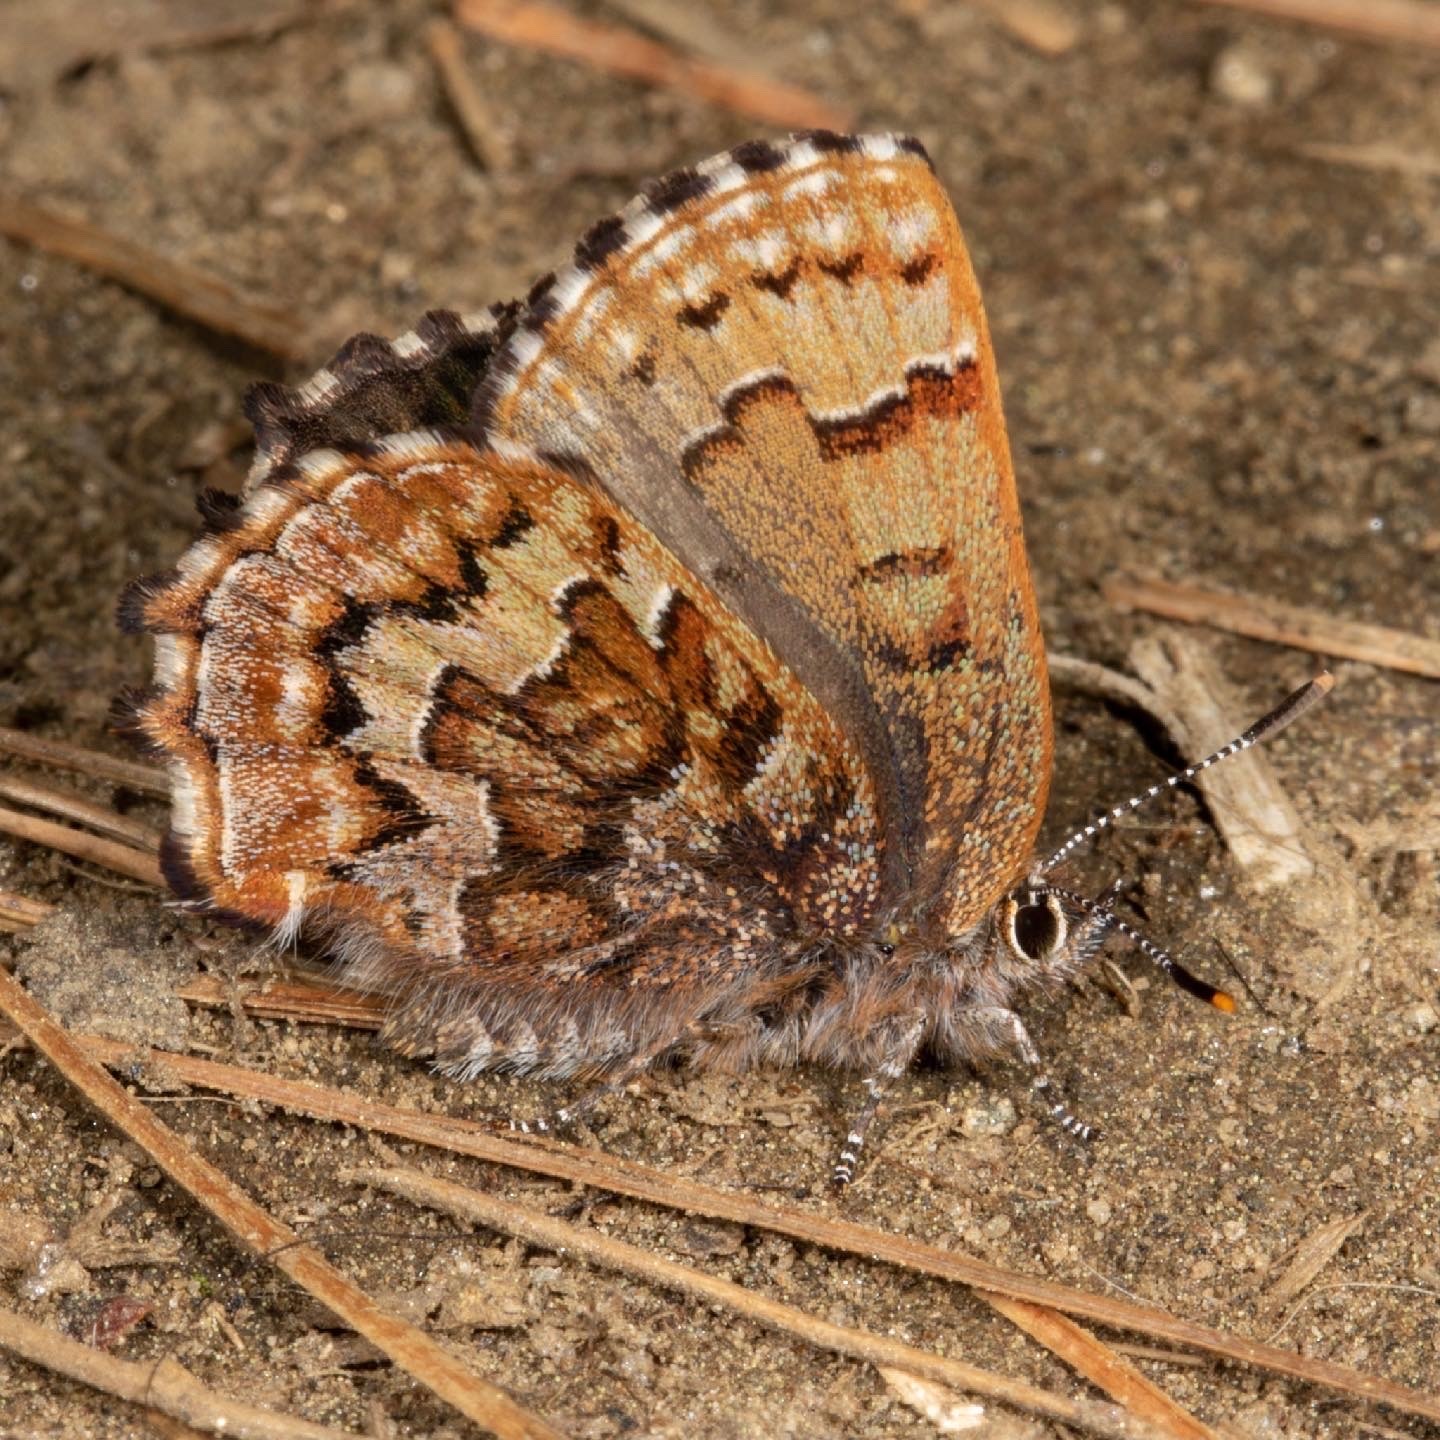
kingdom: Animalia
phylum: Arthropoda
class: Insecta
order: Lepidoptera
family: Lycaenidae
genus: Incisalia
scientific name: Incisalia niphon
